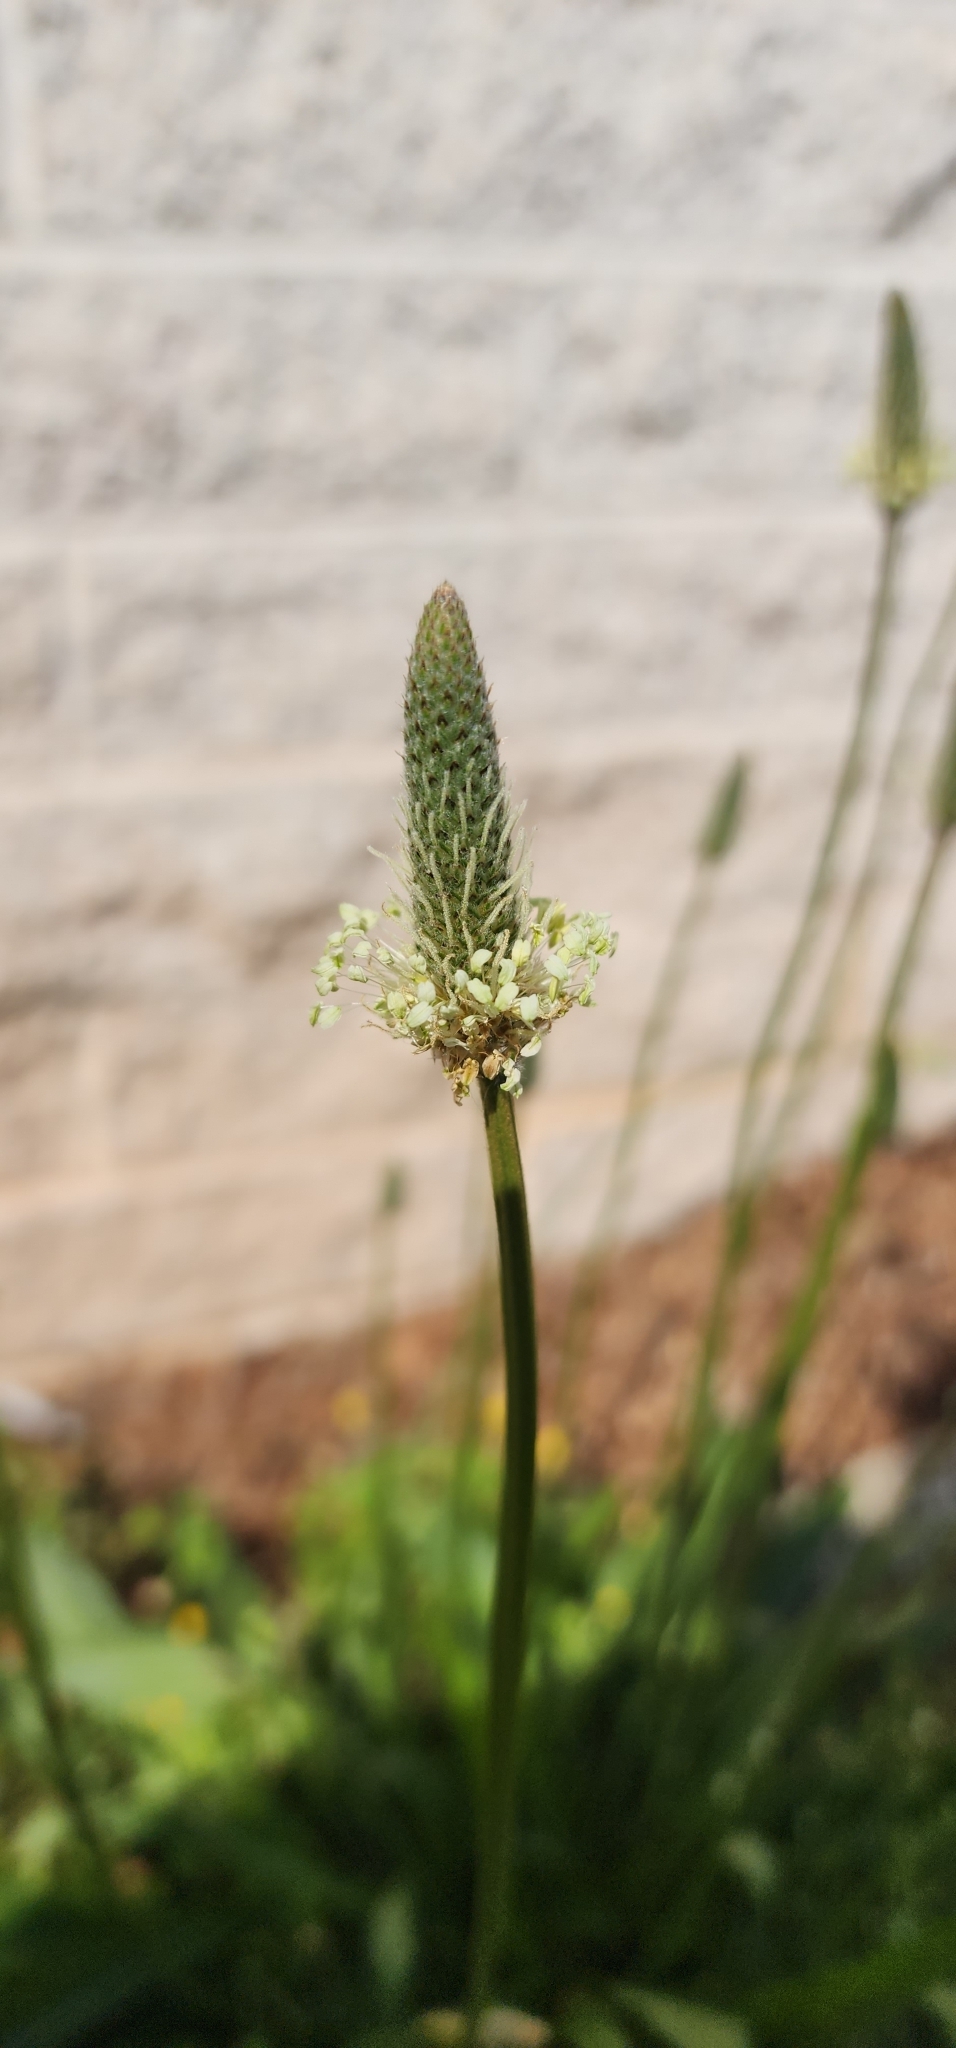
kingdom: Plantae
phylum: Tracheophyta
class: Magnoliopsida
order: Lamiales
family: Plantaginaceae
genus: Plantago
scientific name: Plantago lanceolata
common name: Ribwort plantain
